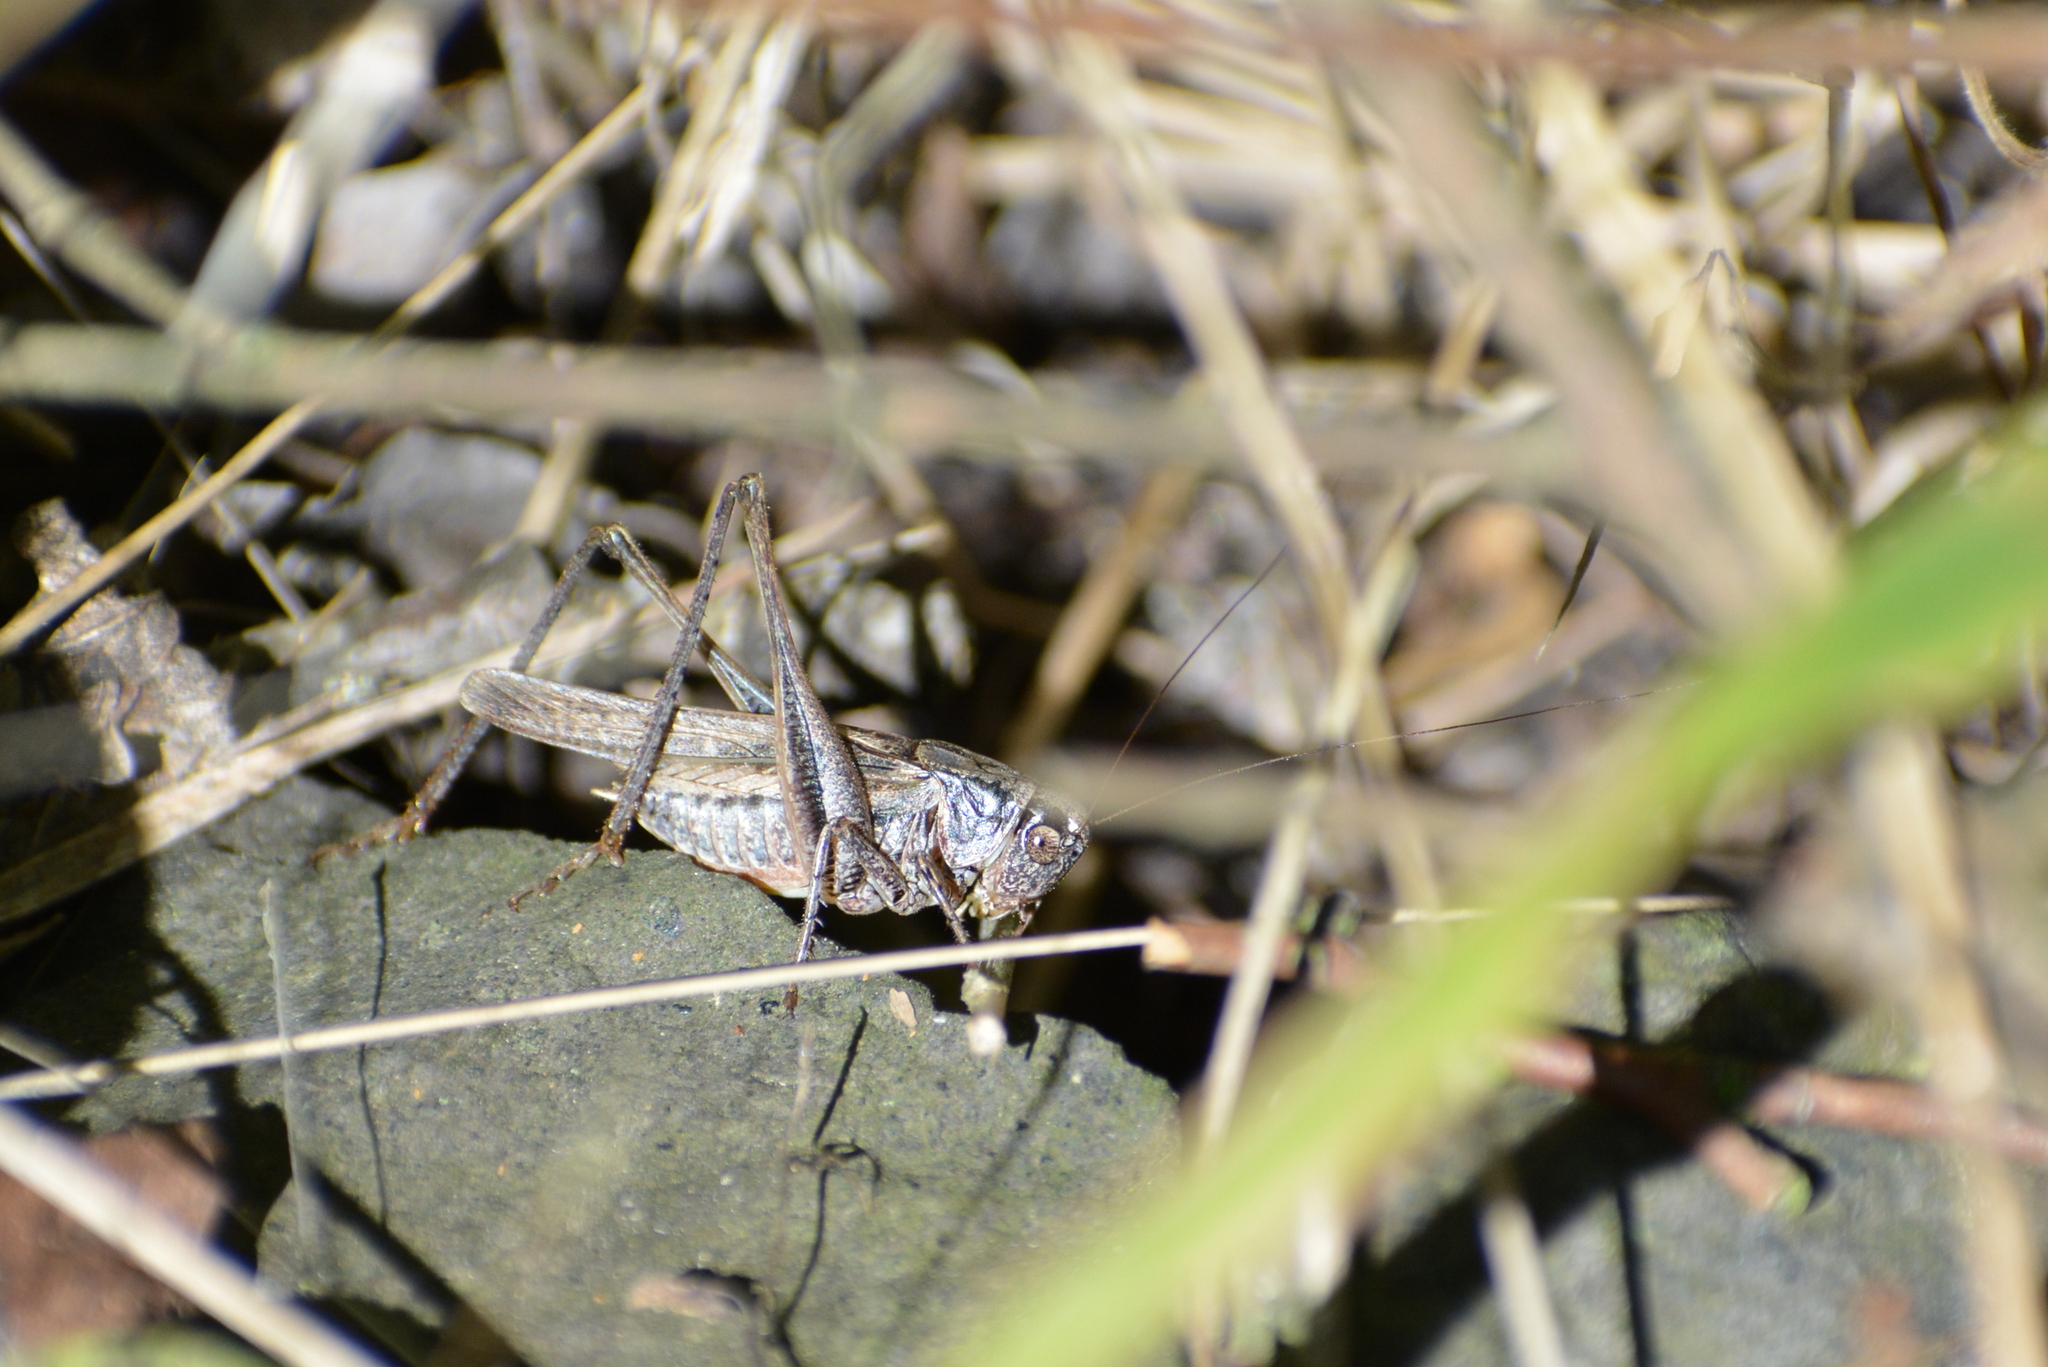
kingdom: Animalia
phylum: Arthropoda
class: Insecta
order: Orthoptera
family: Tettigoniidae
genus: Platycleis
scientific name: Platycleis albopunctata
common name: Grey bush-cricket
